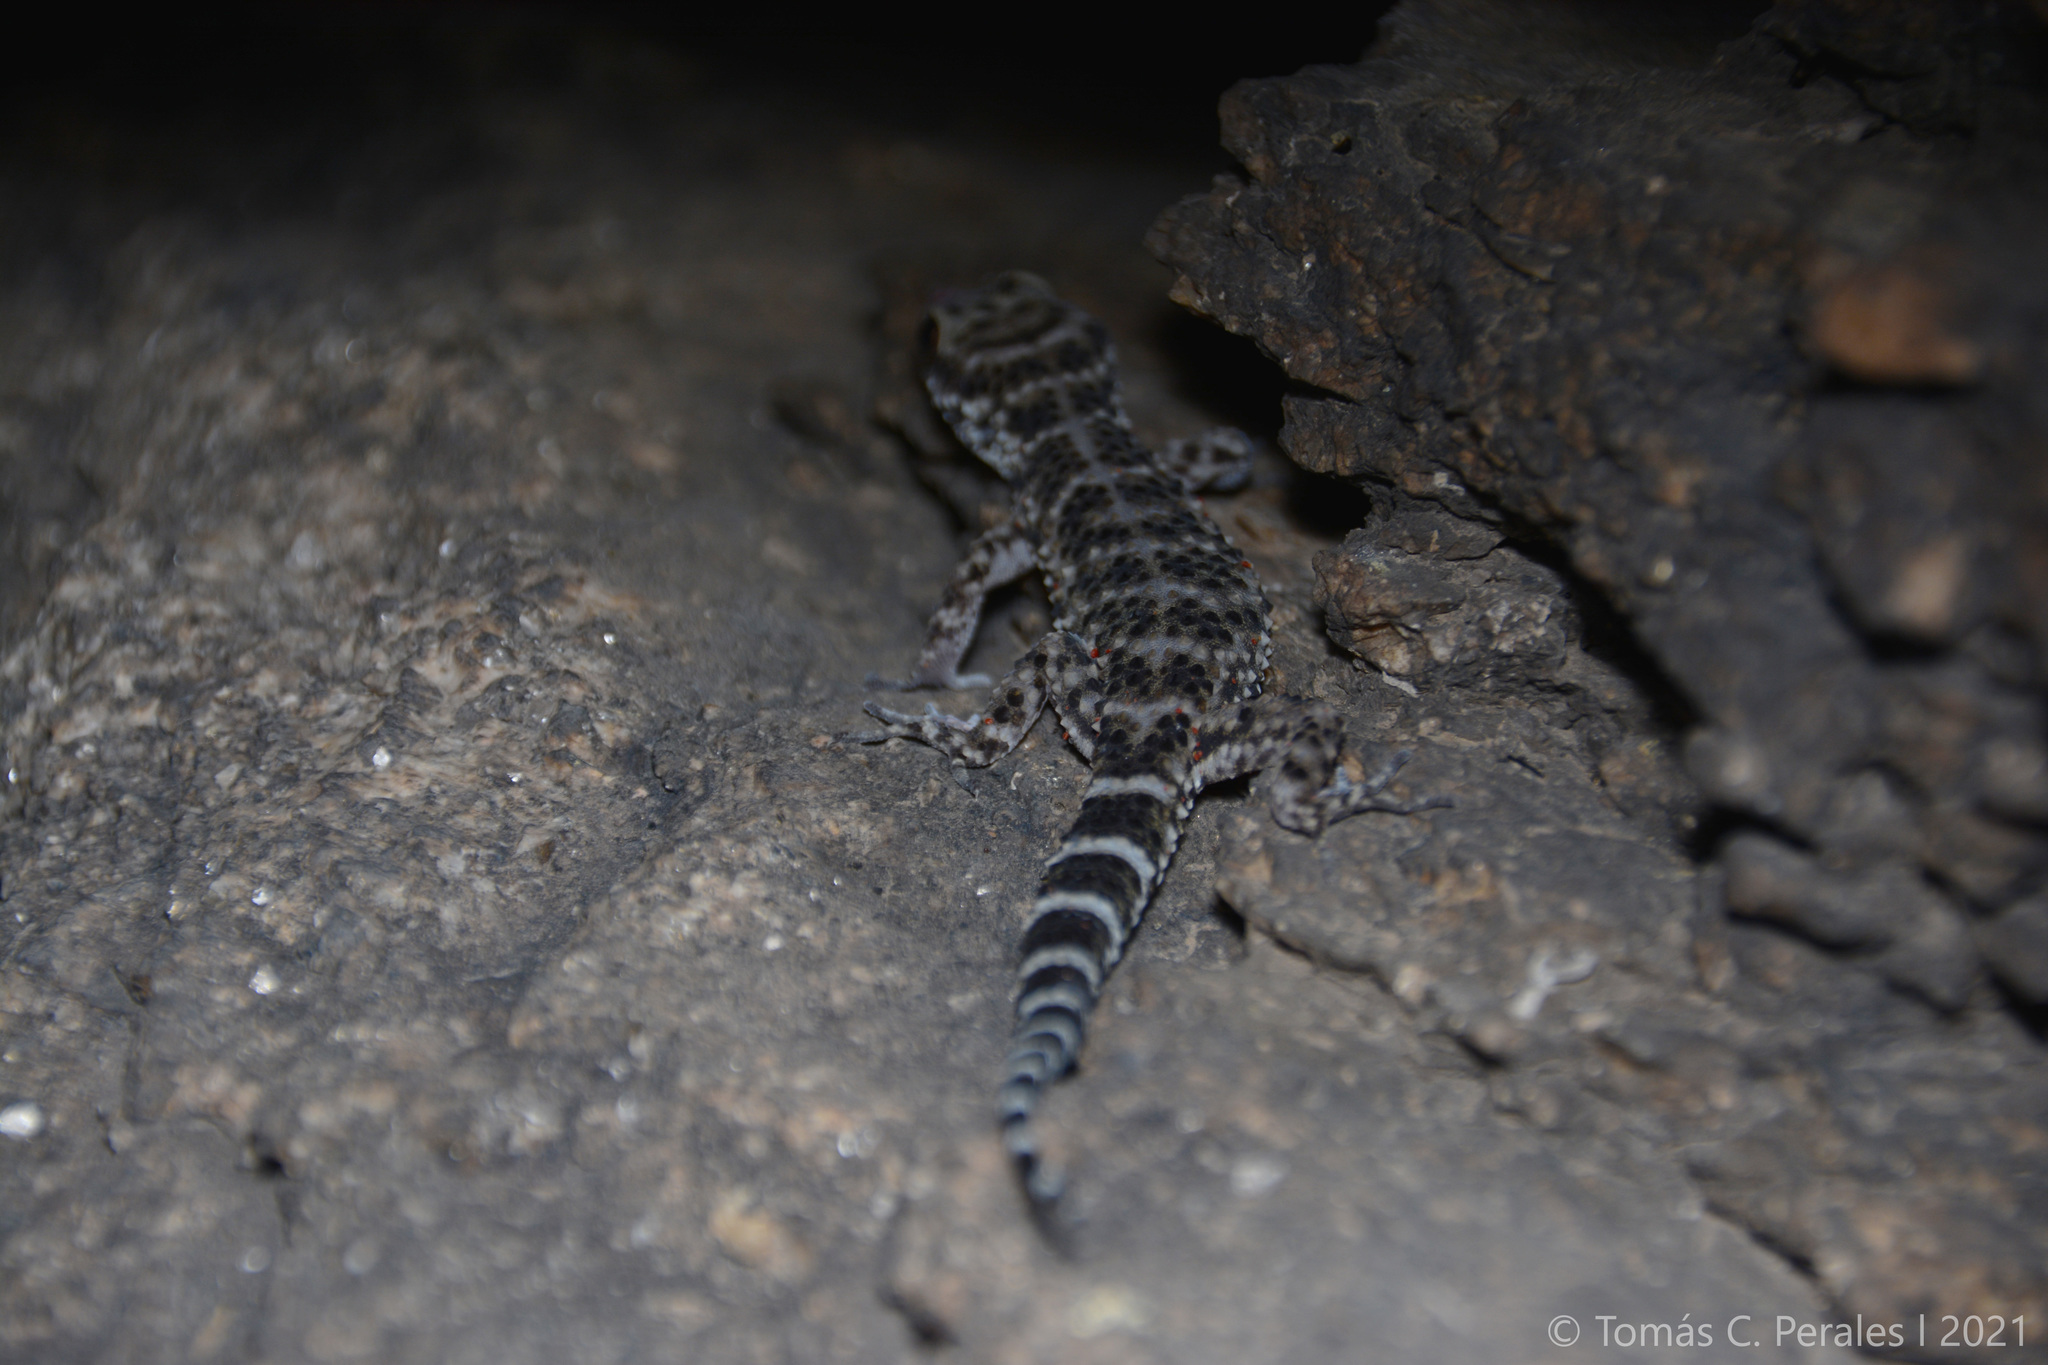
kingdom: Animalia
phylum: Chordata
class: Squamata
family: Phyllodactylidae
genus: Homonota
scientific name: Homonota horrida
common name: South american marked gecko
